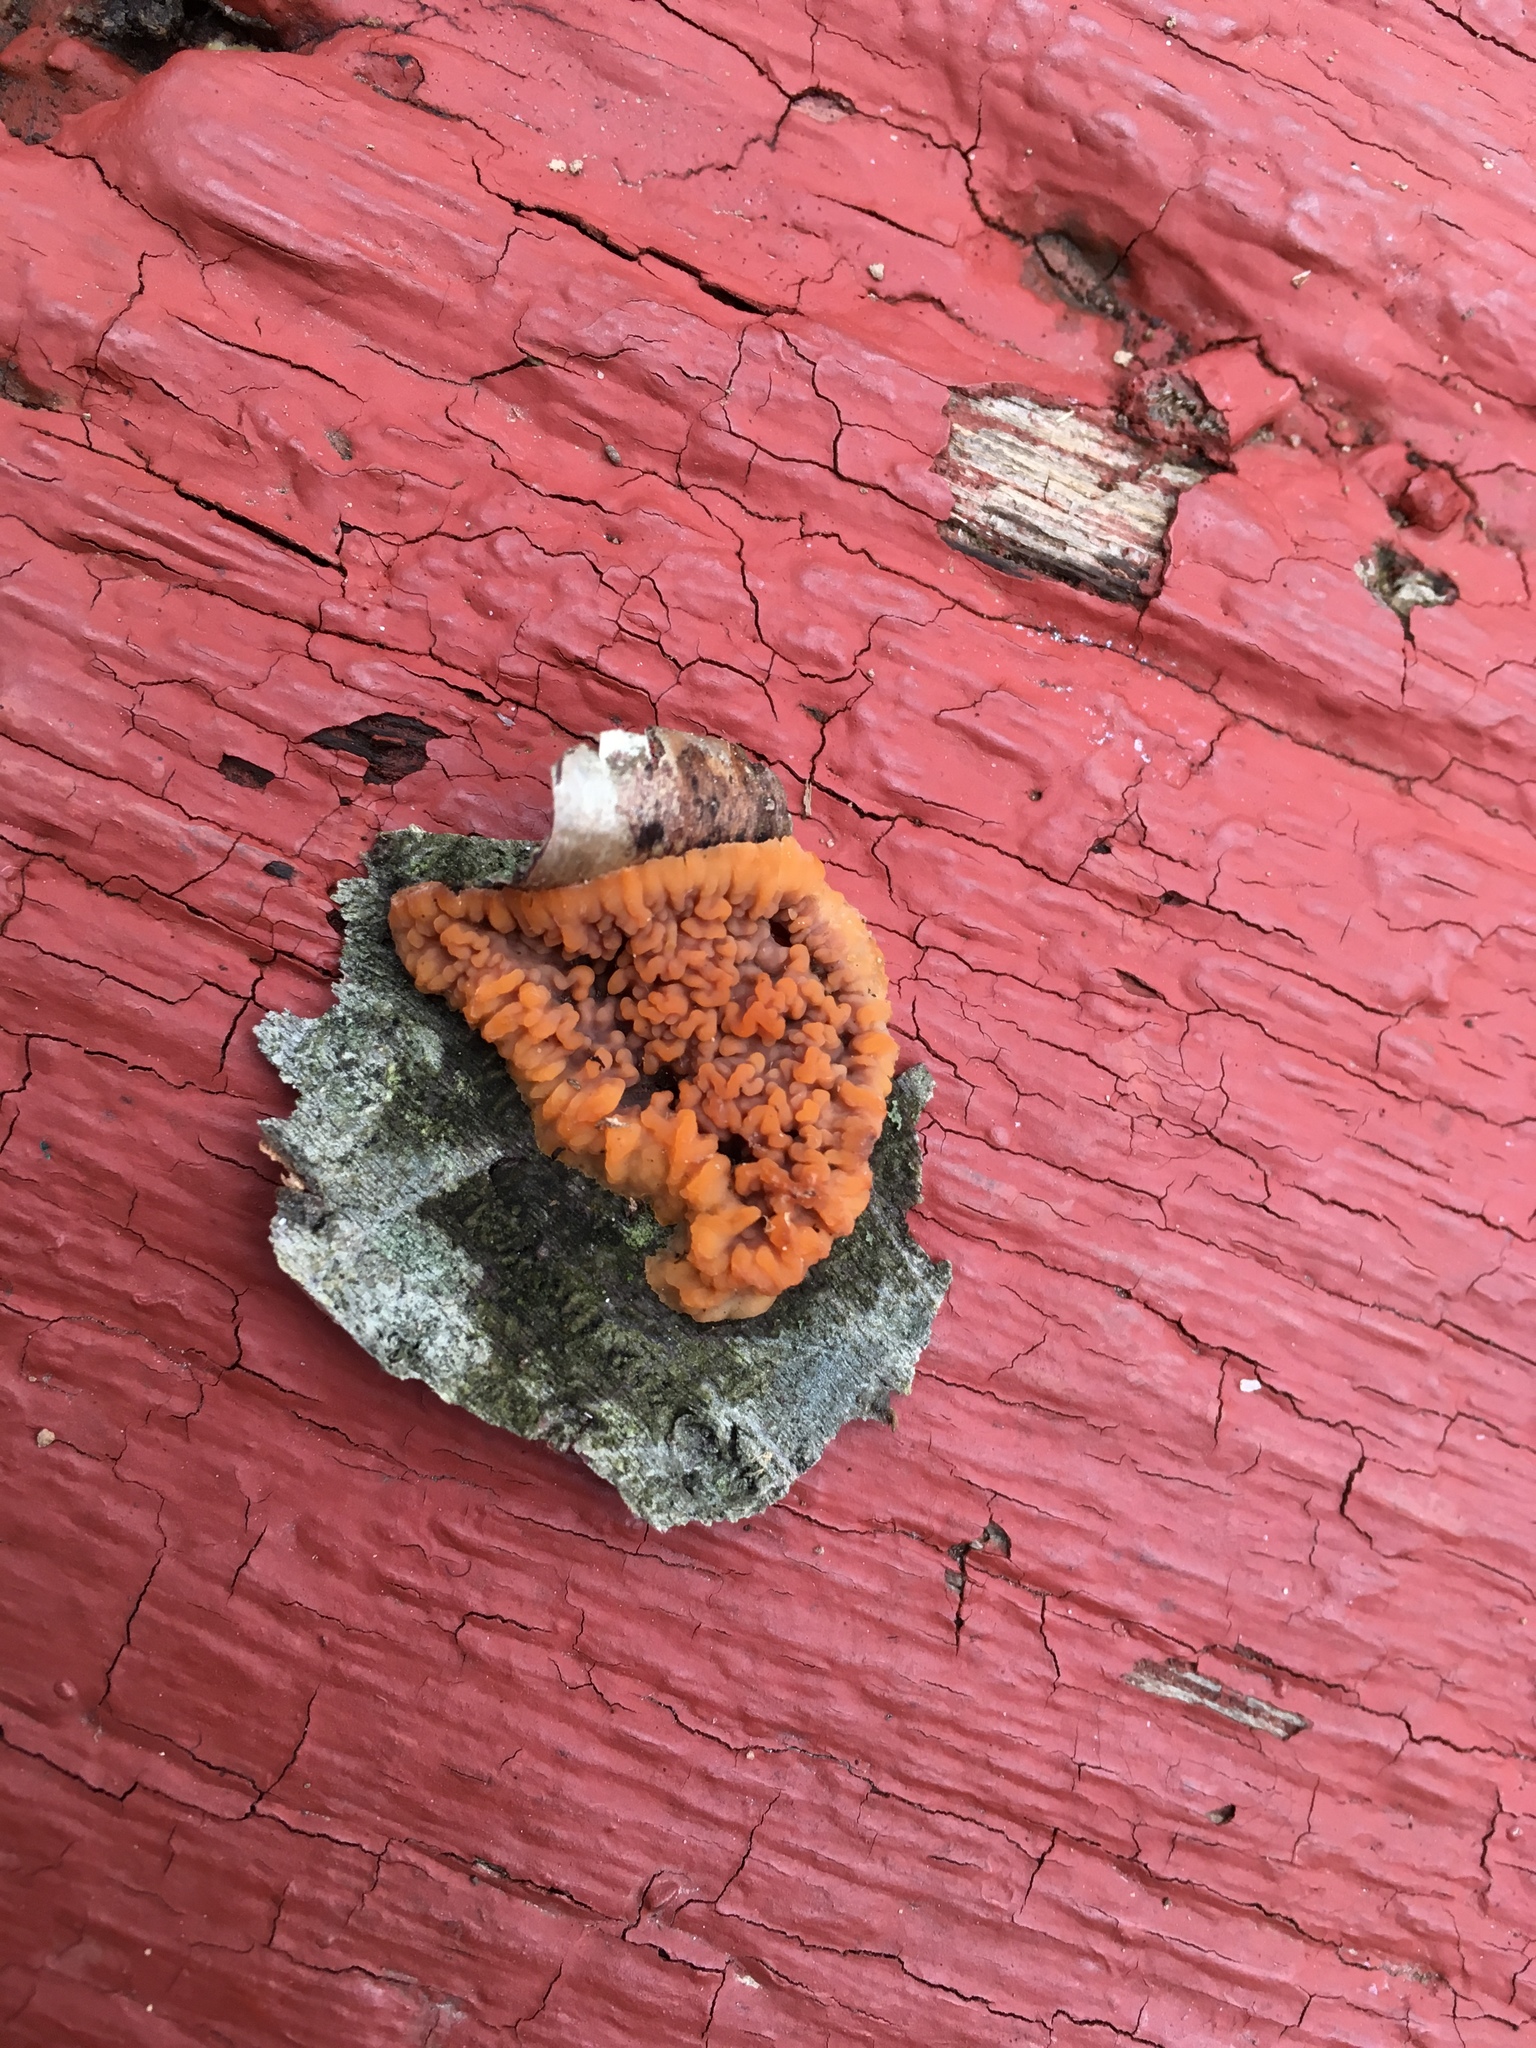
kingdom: Fungi
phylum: Basidiomycota
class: Agaricomycetes
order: Polyporales
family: Meruliaceae
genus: Phlebia
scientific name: Phlebia radiata
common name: Wrinkled crust
